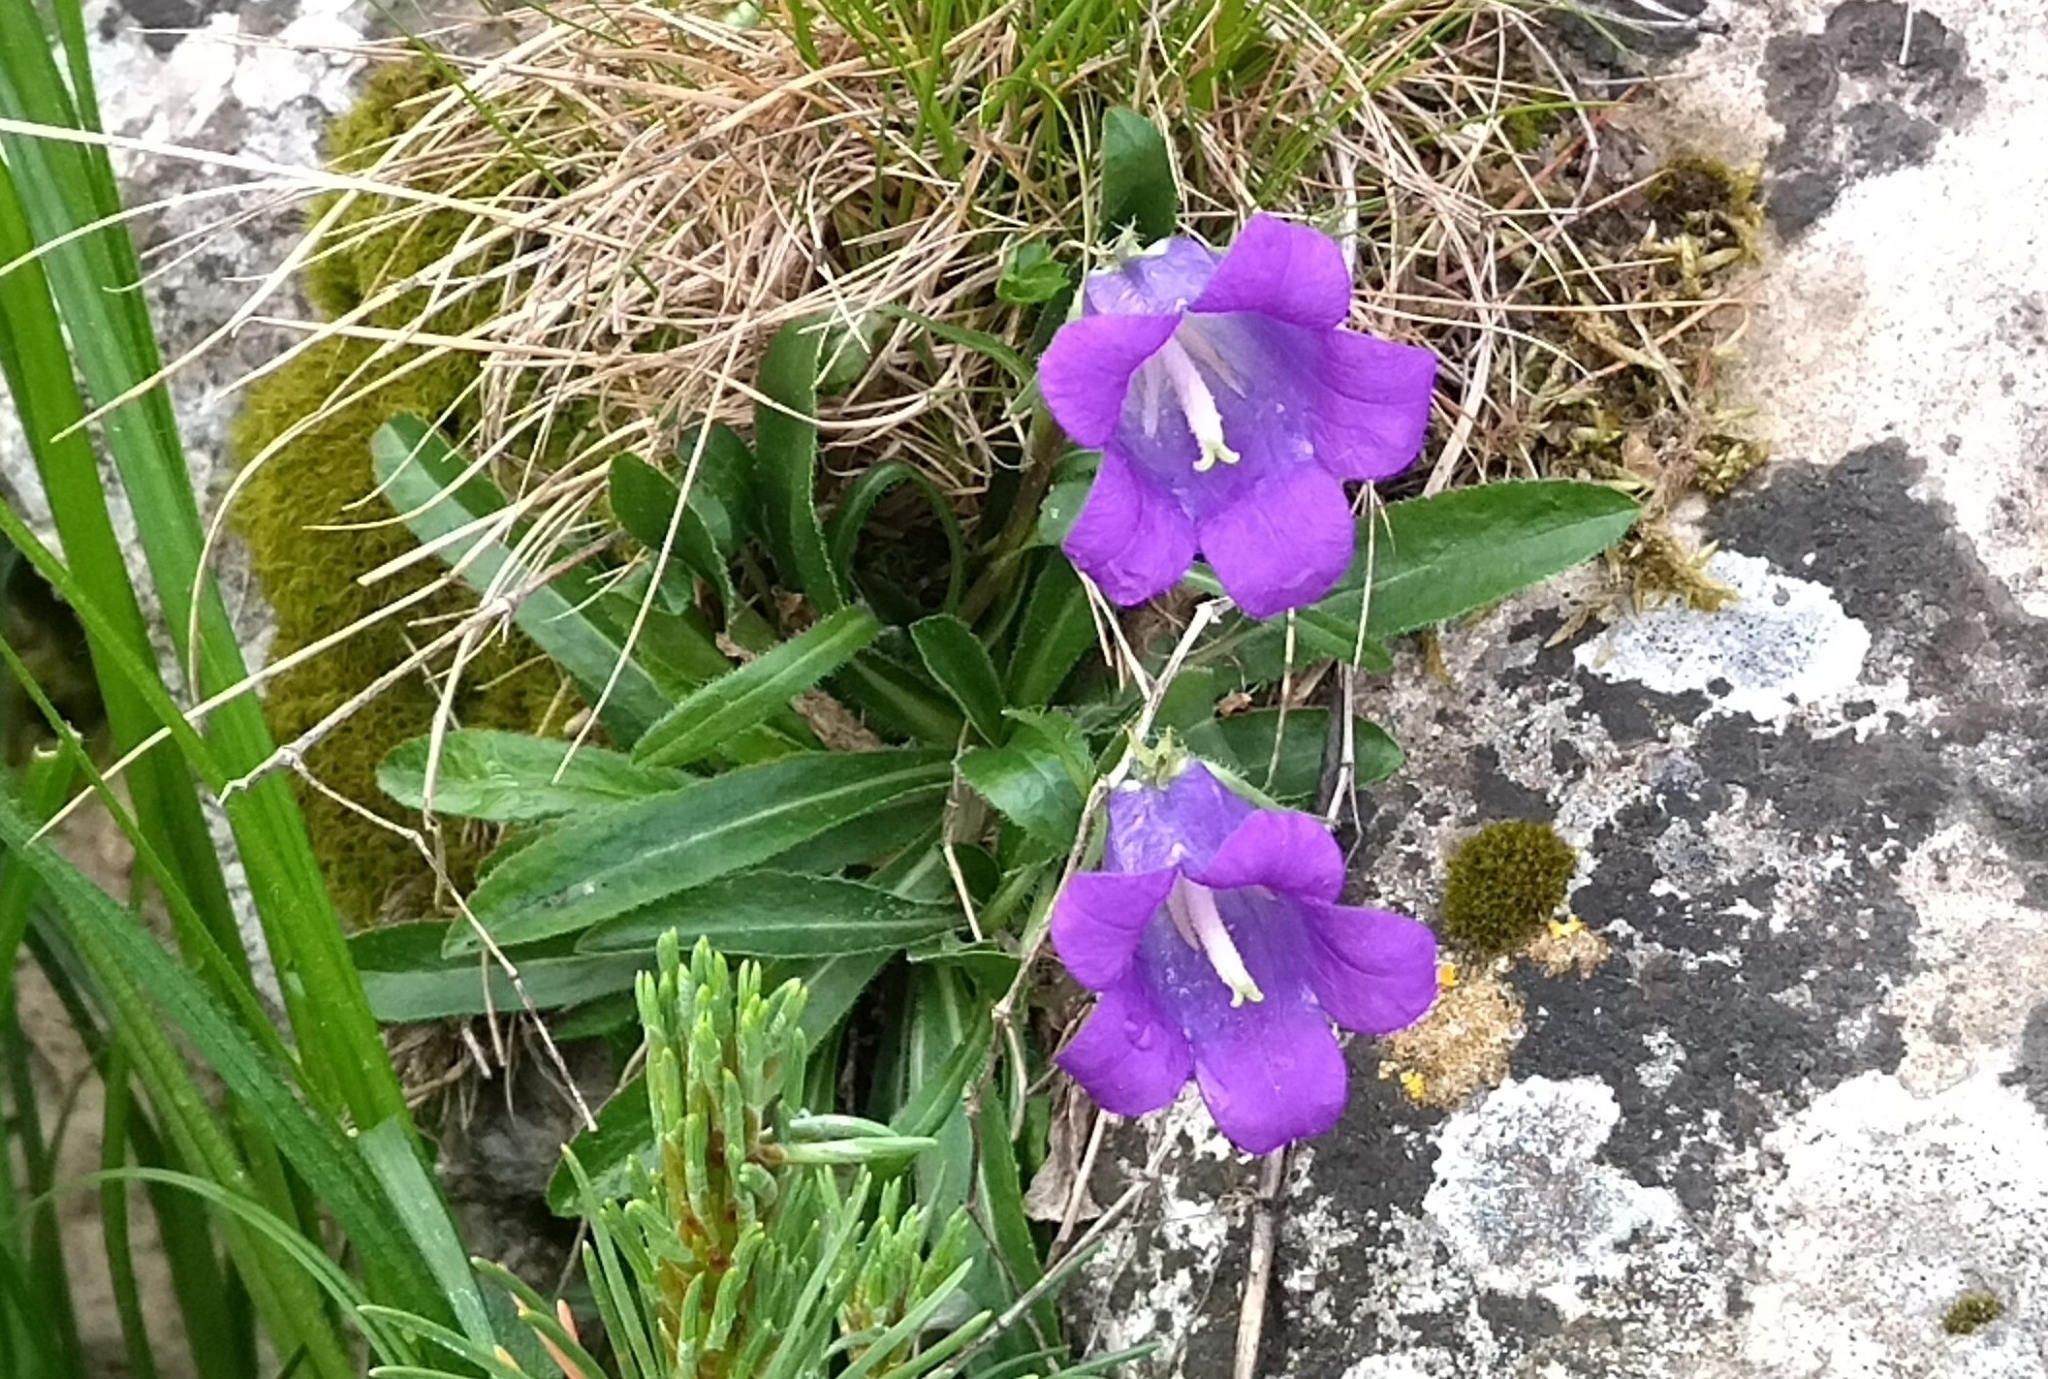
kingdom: Plantae
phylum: Tracheophyta
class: Magnoliopsida
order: Asterales
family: Campanulaceae
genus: Campanula
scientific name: Campanula ciliata
